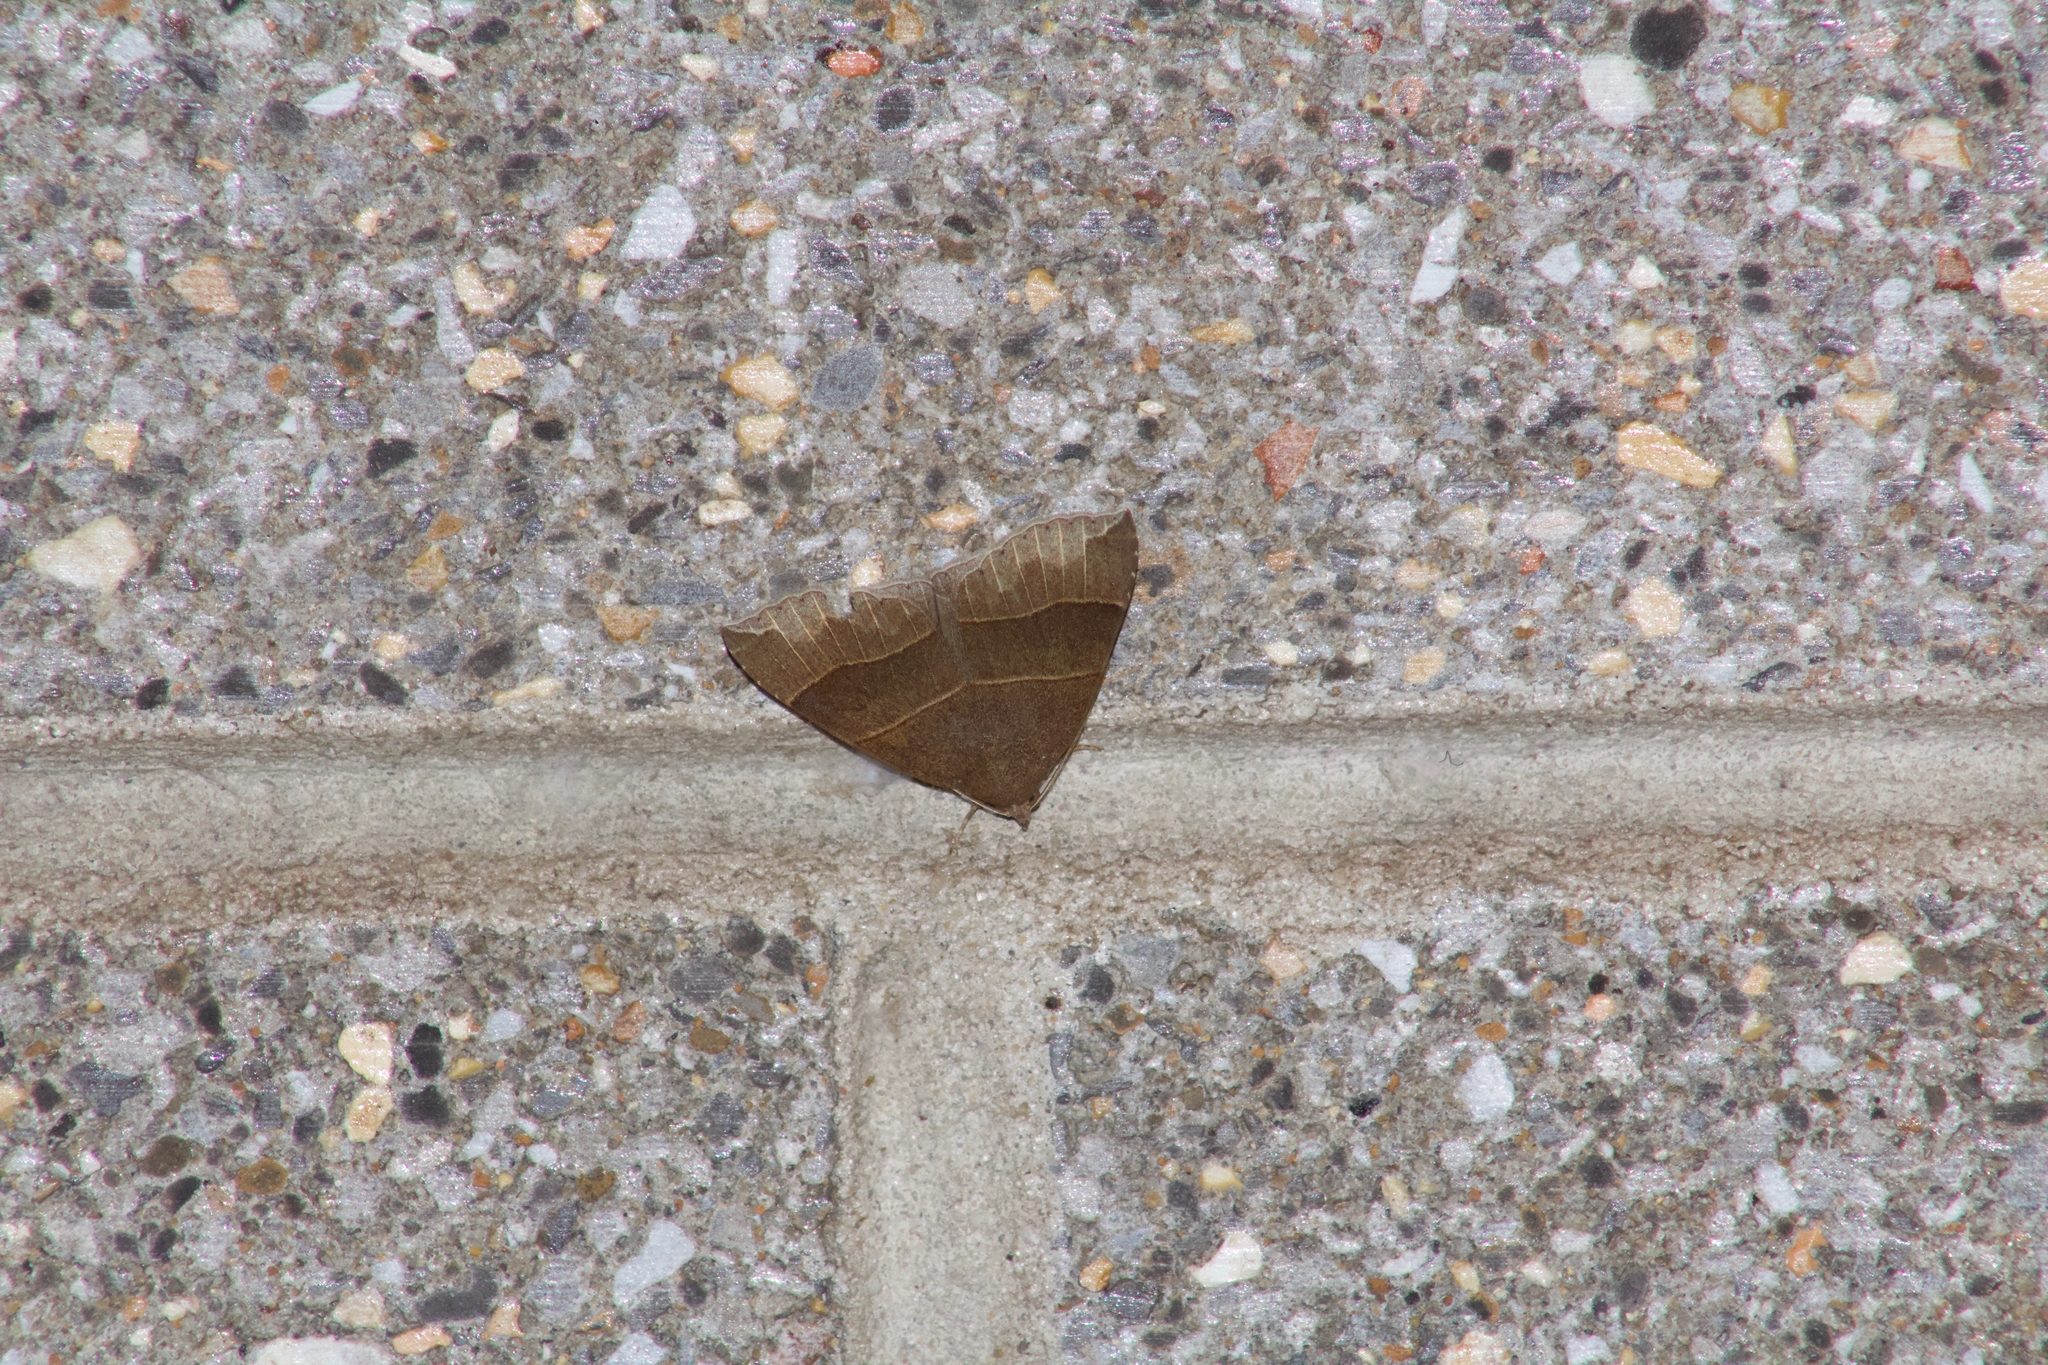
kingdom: Animalia
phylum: Arthropoda
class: Insecta
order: Lepidoptera
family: Erebidae
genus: Parallelia
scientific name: Parallelia bistriaris
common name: Maple looper moth
